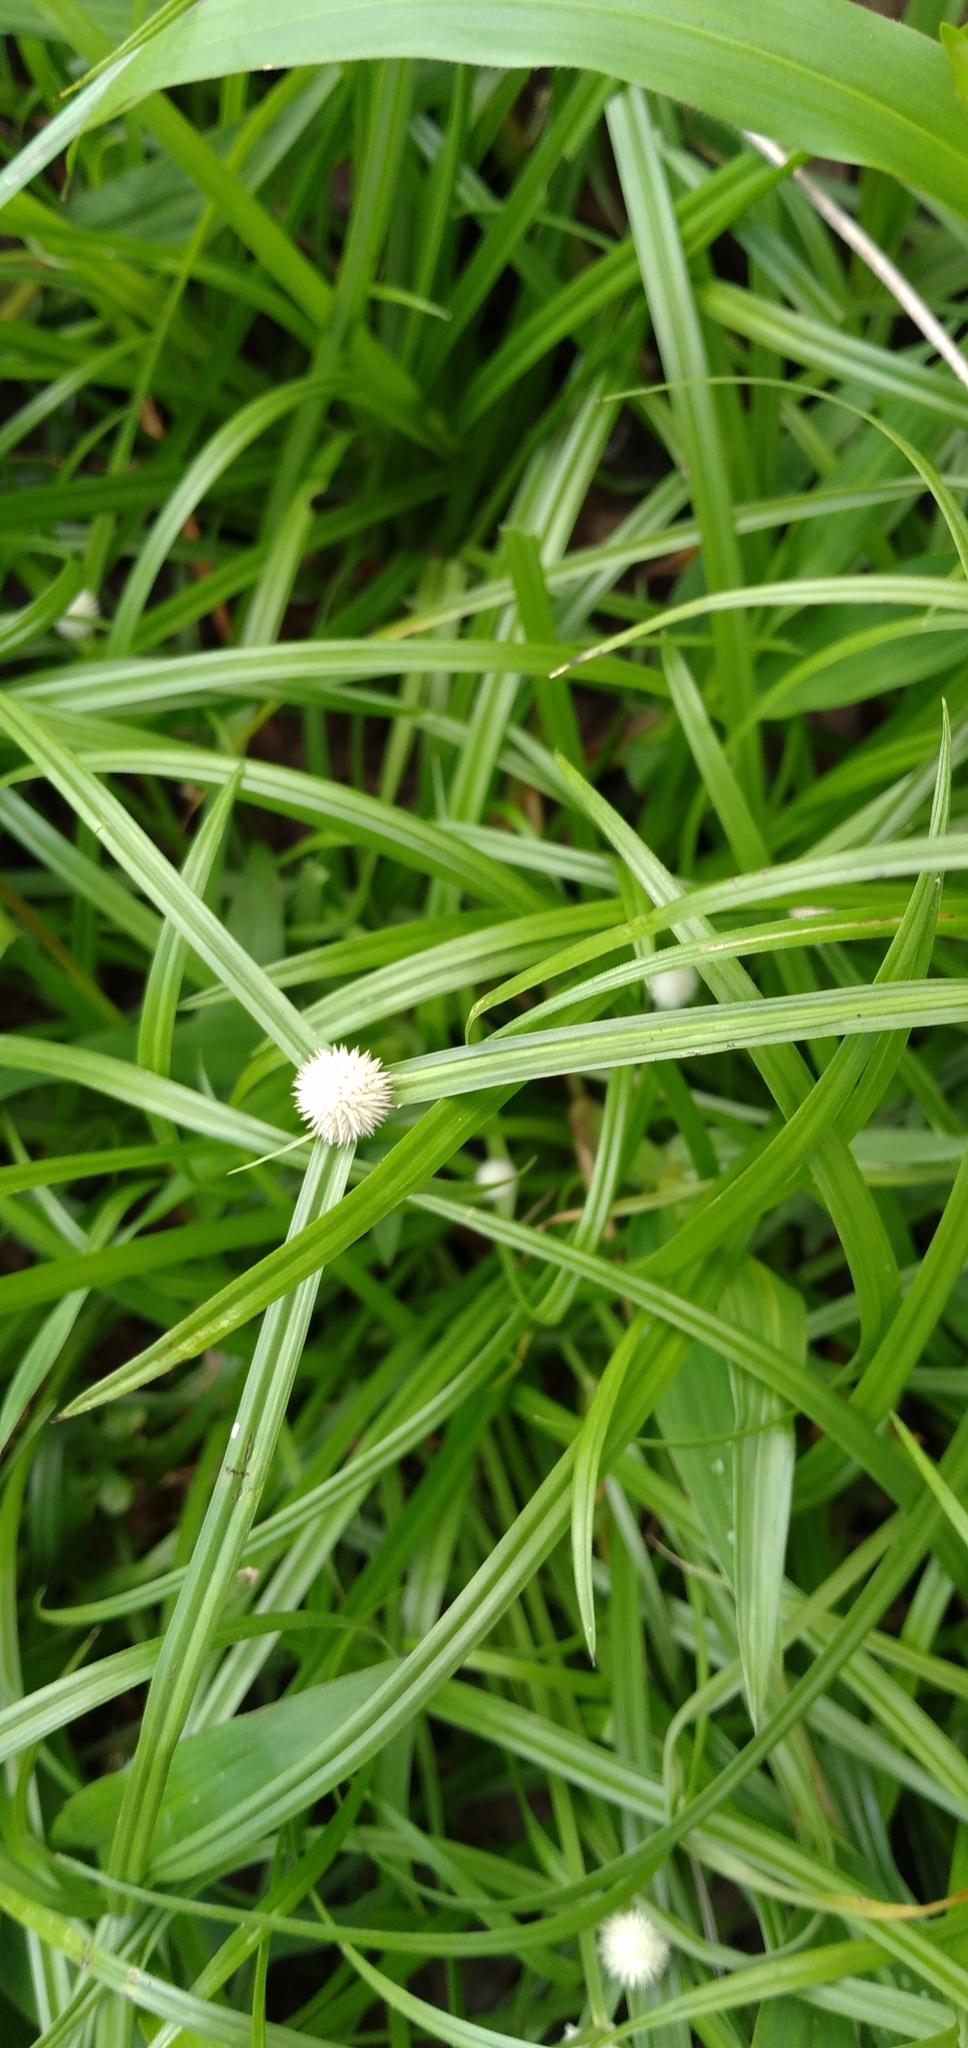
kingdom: Plantae
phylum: Tracheophyta
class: Liliopsida
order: Poales
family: Cyperaceae
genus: Cyperus
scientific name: Cyperus mindorensis
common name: Flatsedge
